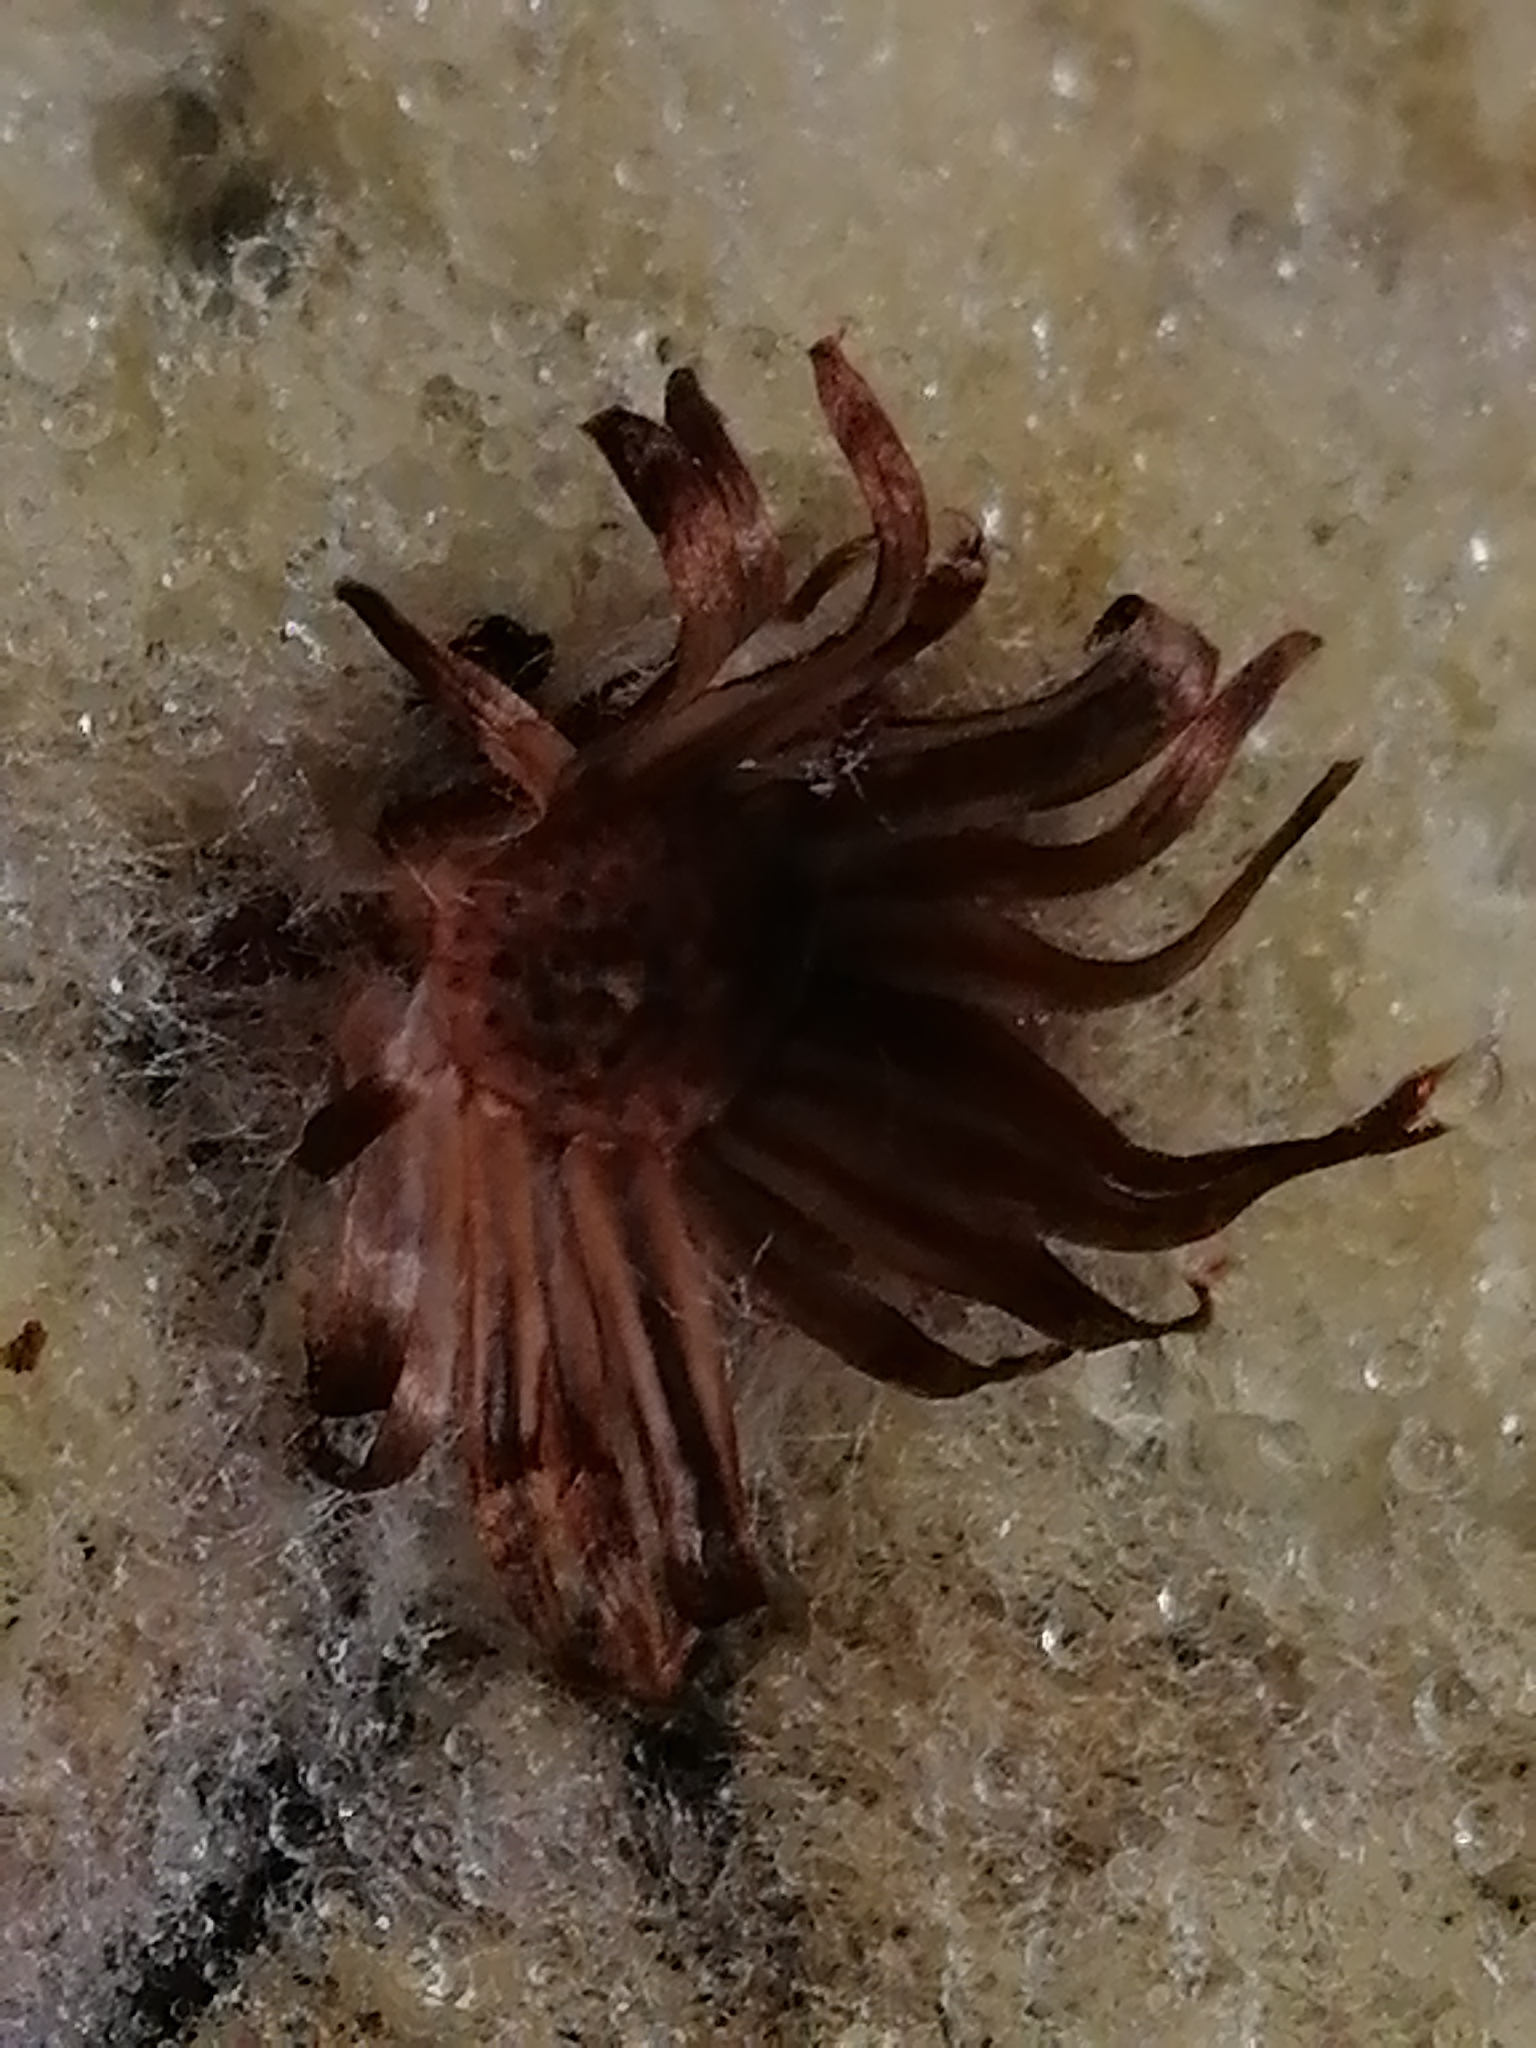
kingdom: Plantae
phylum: Tracheophyta
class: Magnoliopsida
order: Asterales
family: Asteraceae
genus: Haastia
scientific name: Haastia pulvinaris
